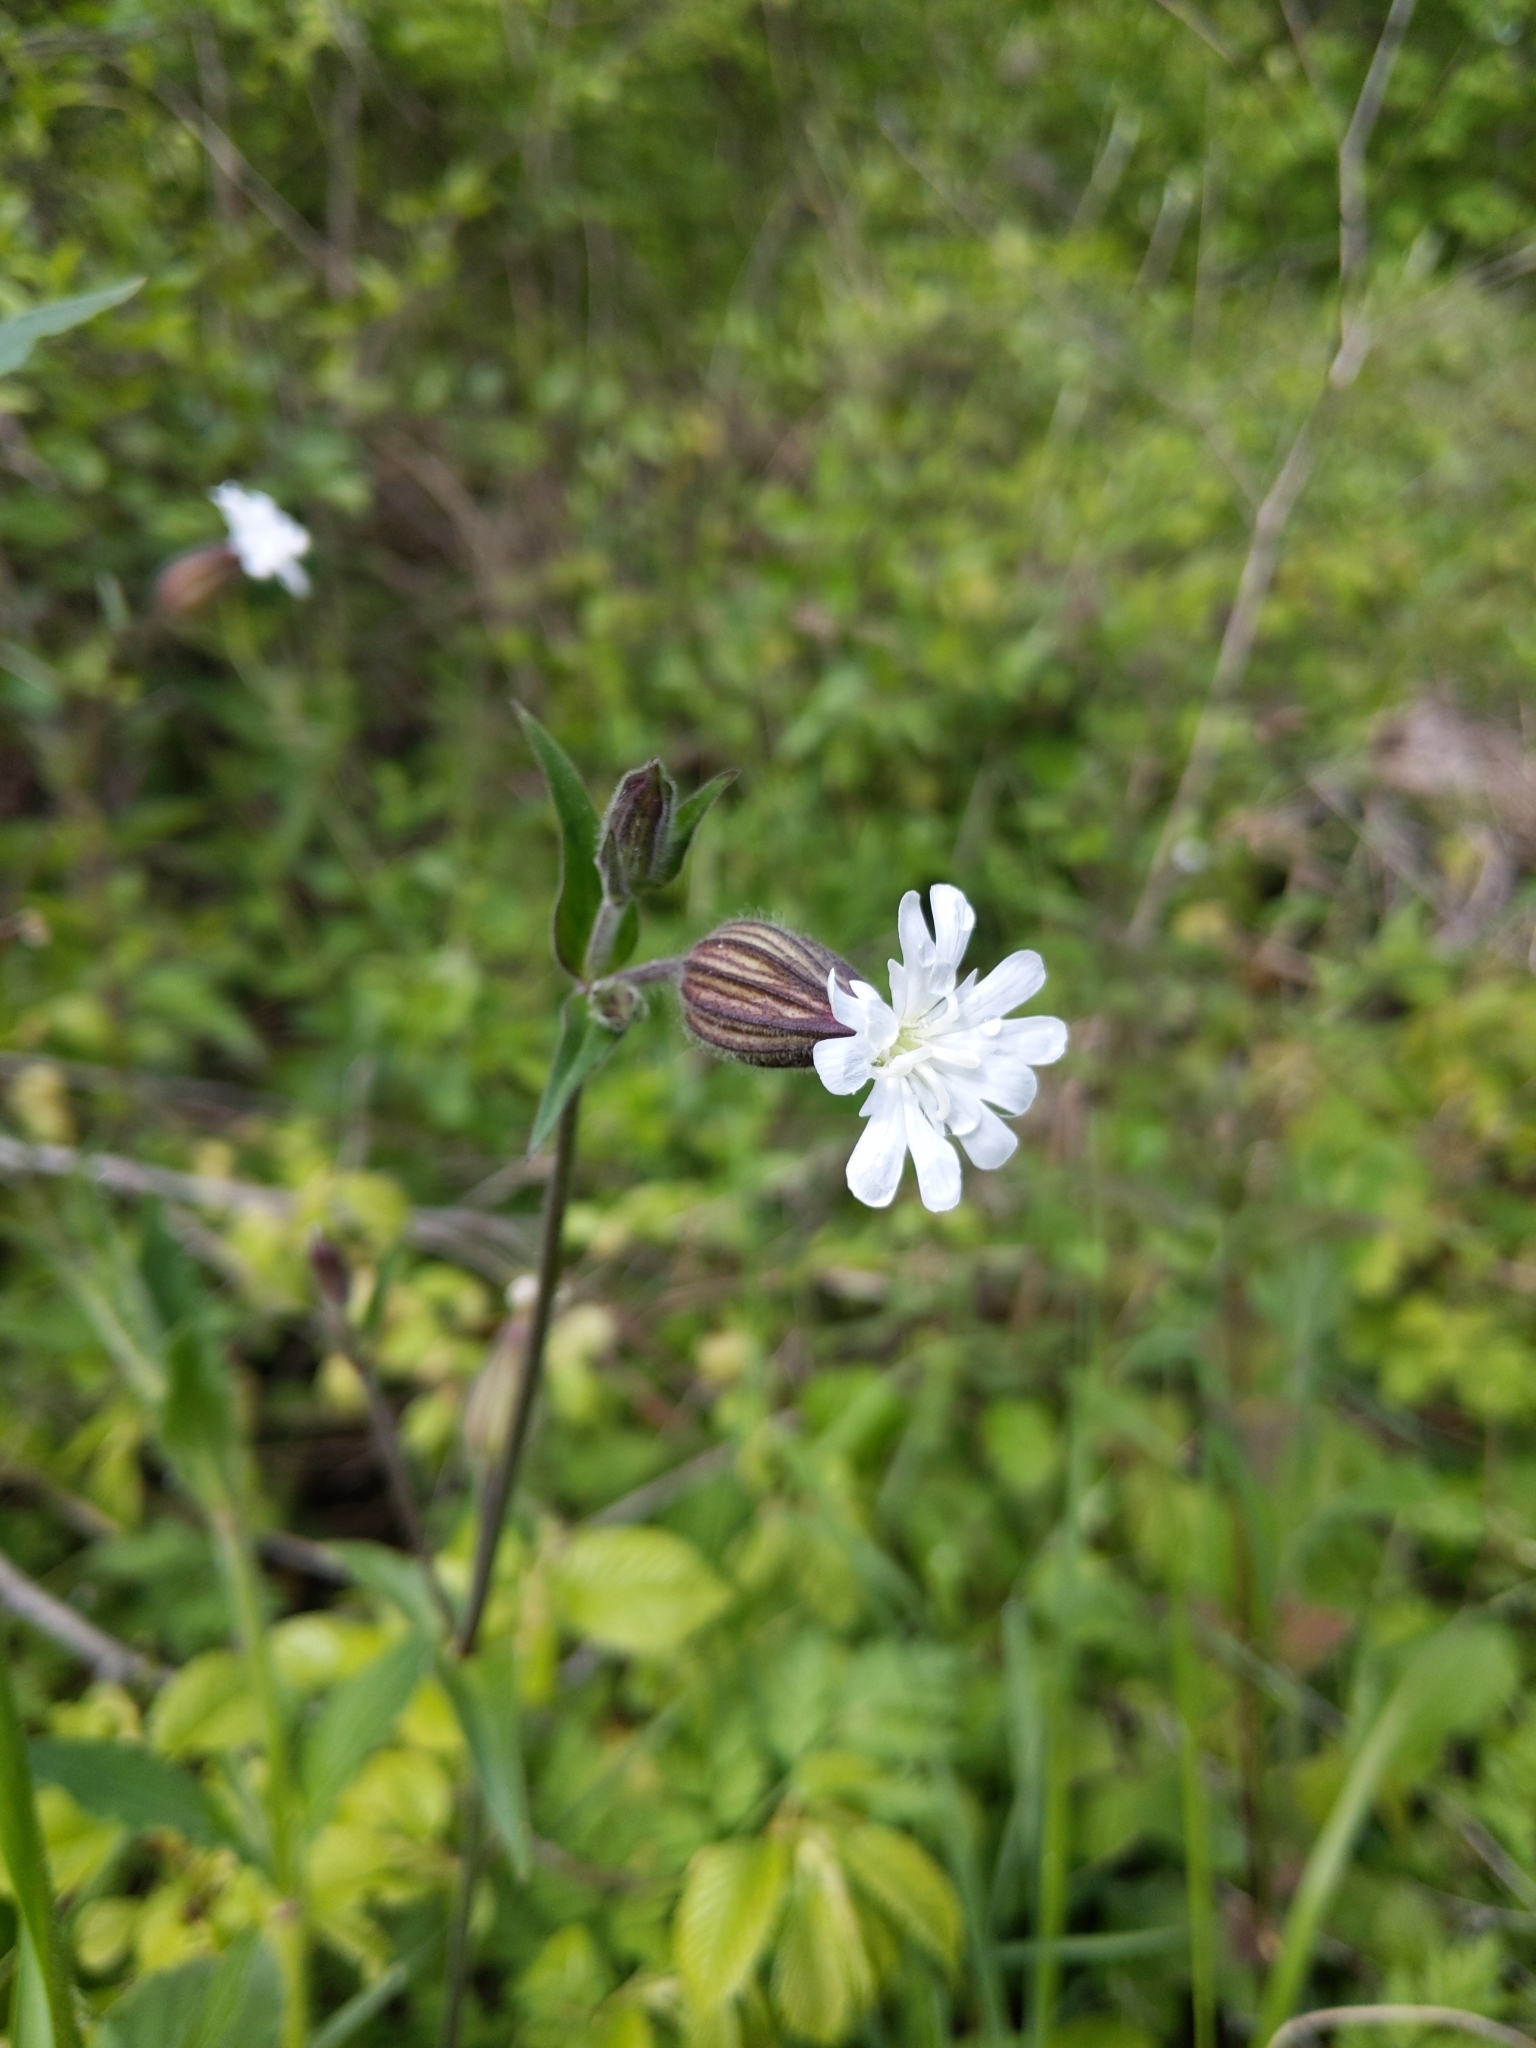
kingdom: Plantae
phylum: Tracheophyta
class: Magnoliopsida
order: Caryophyllales
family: Caryophyllaceae
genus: Silene
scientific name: Silene latifolia
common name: White campion
